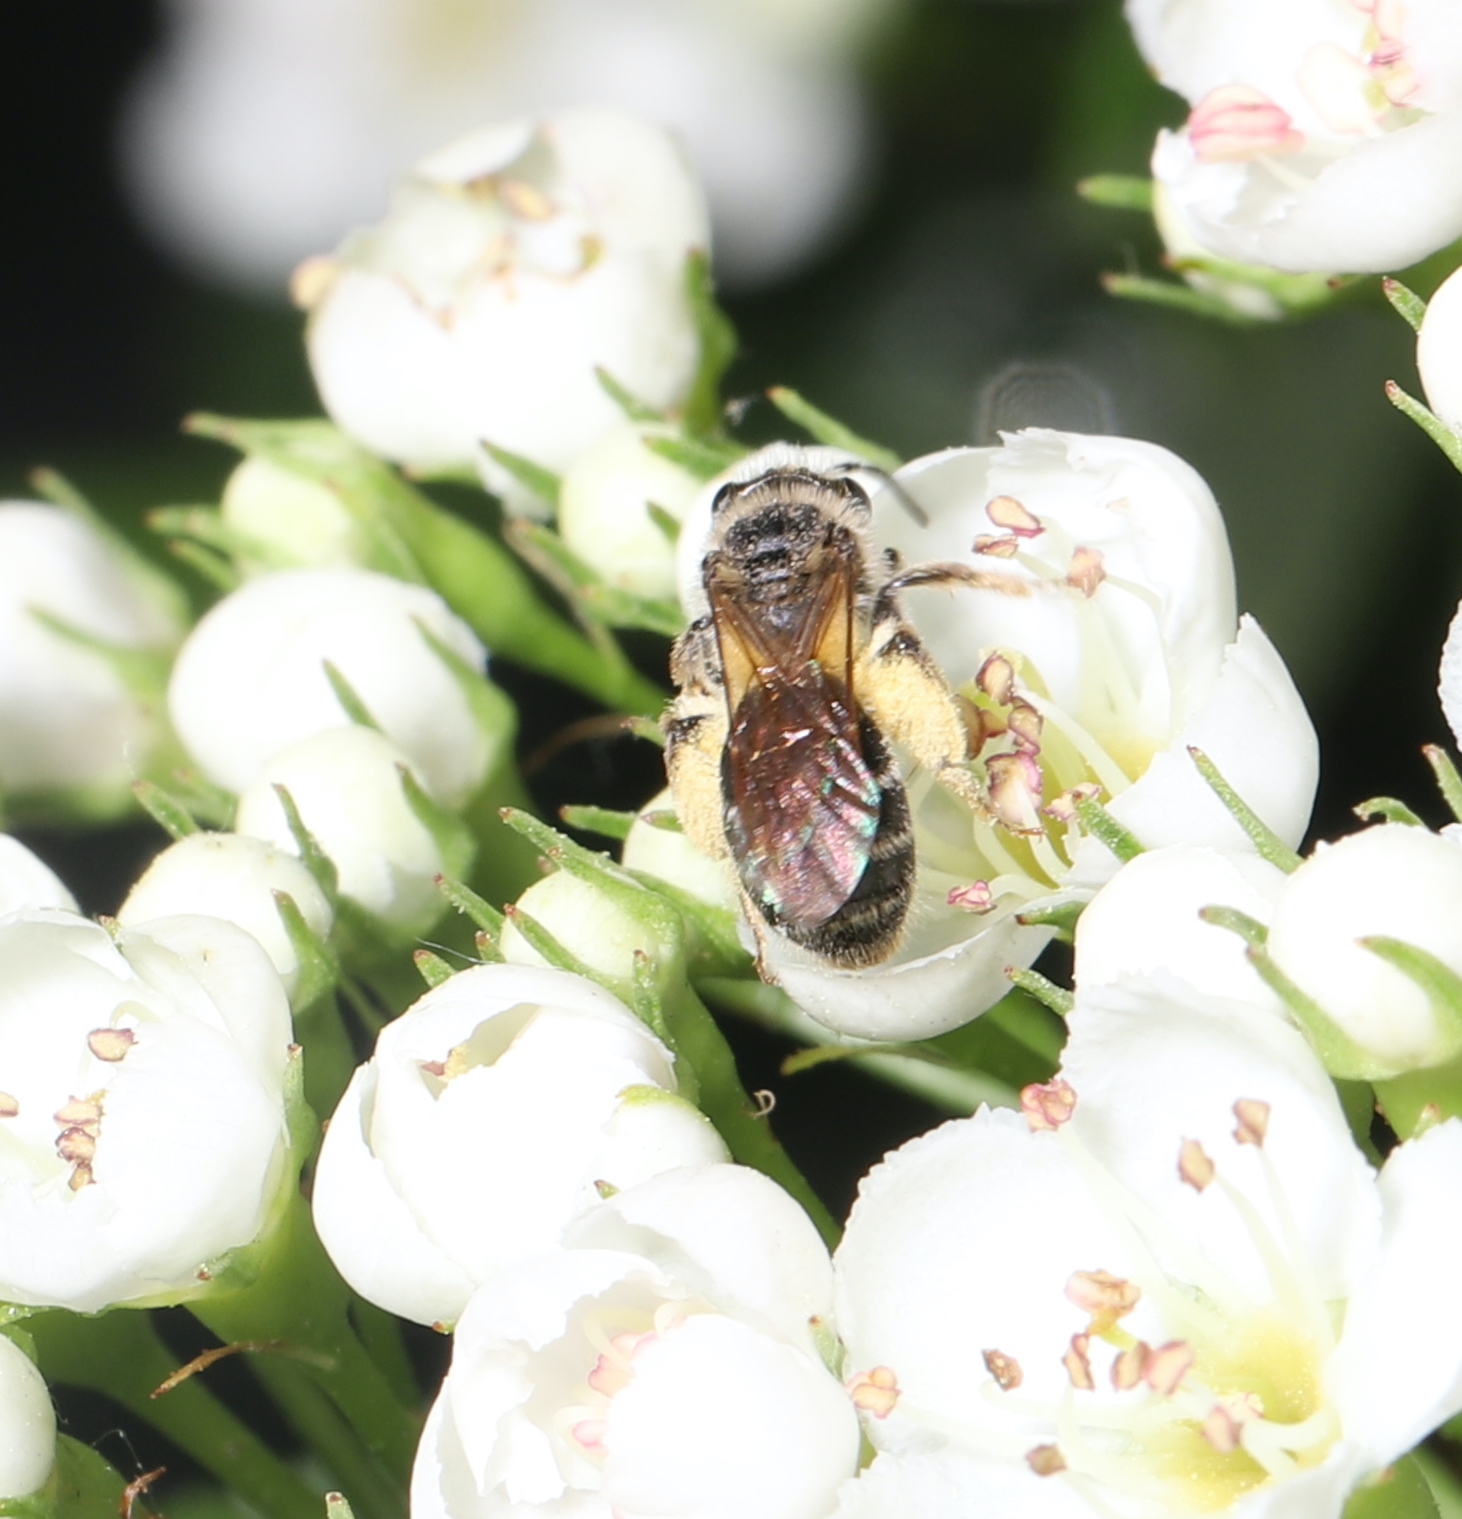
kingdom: Animalia
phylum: Arthropoda
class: Insecta
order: Hymenoptera
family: Andrenidae
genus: Andrena
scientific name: Andrena
